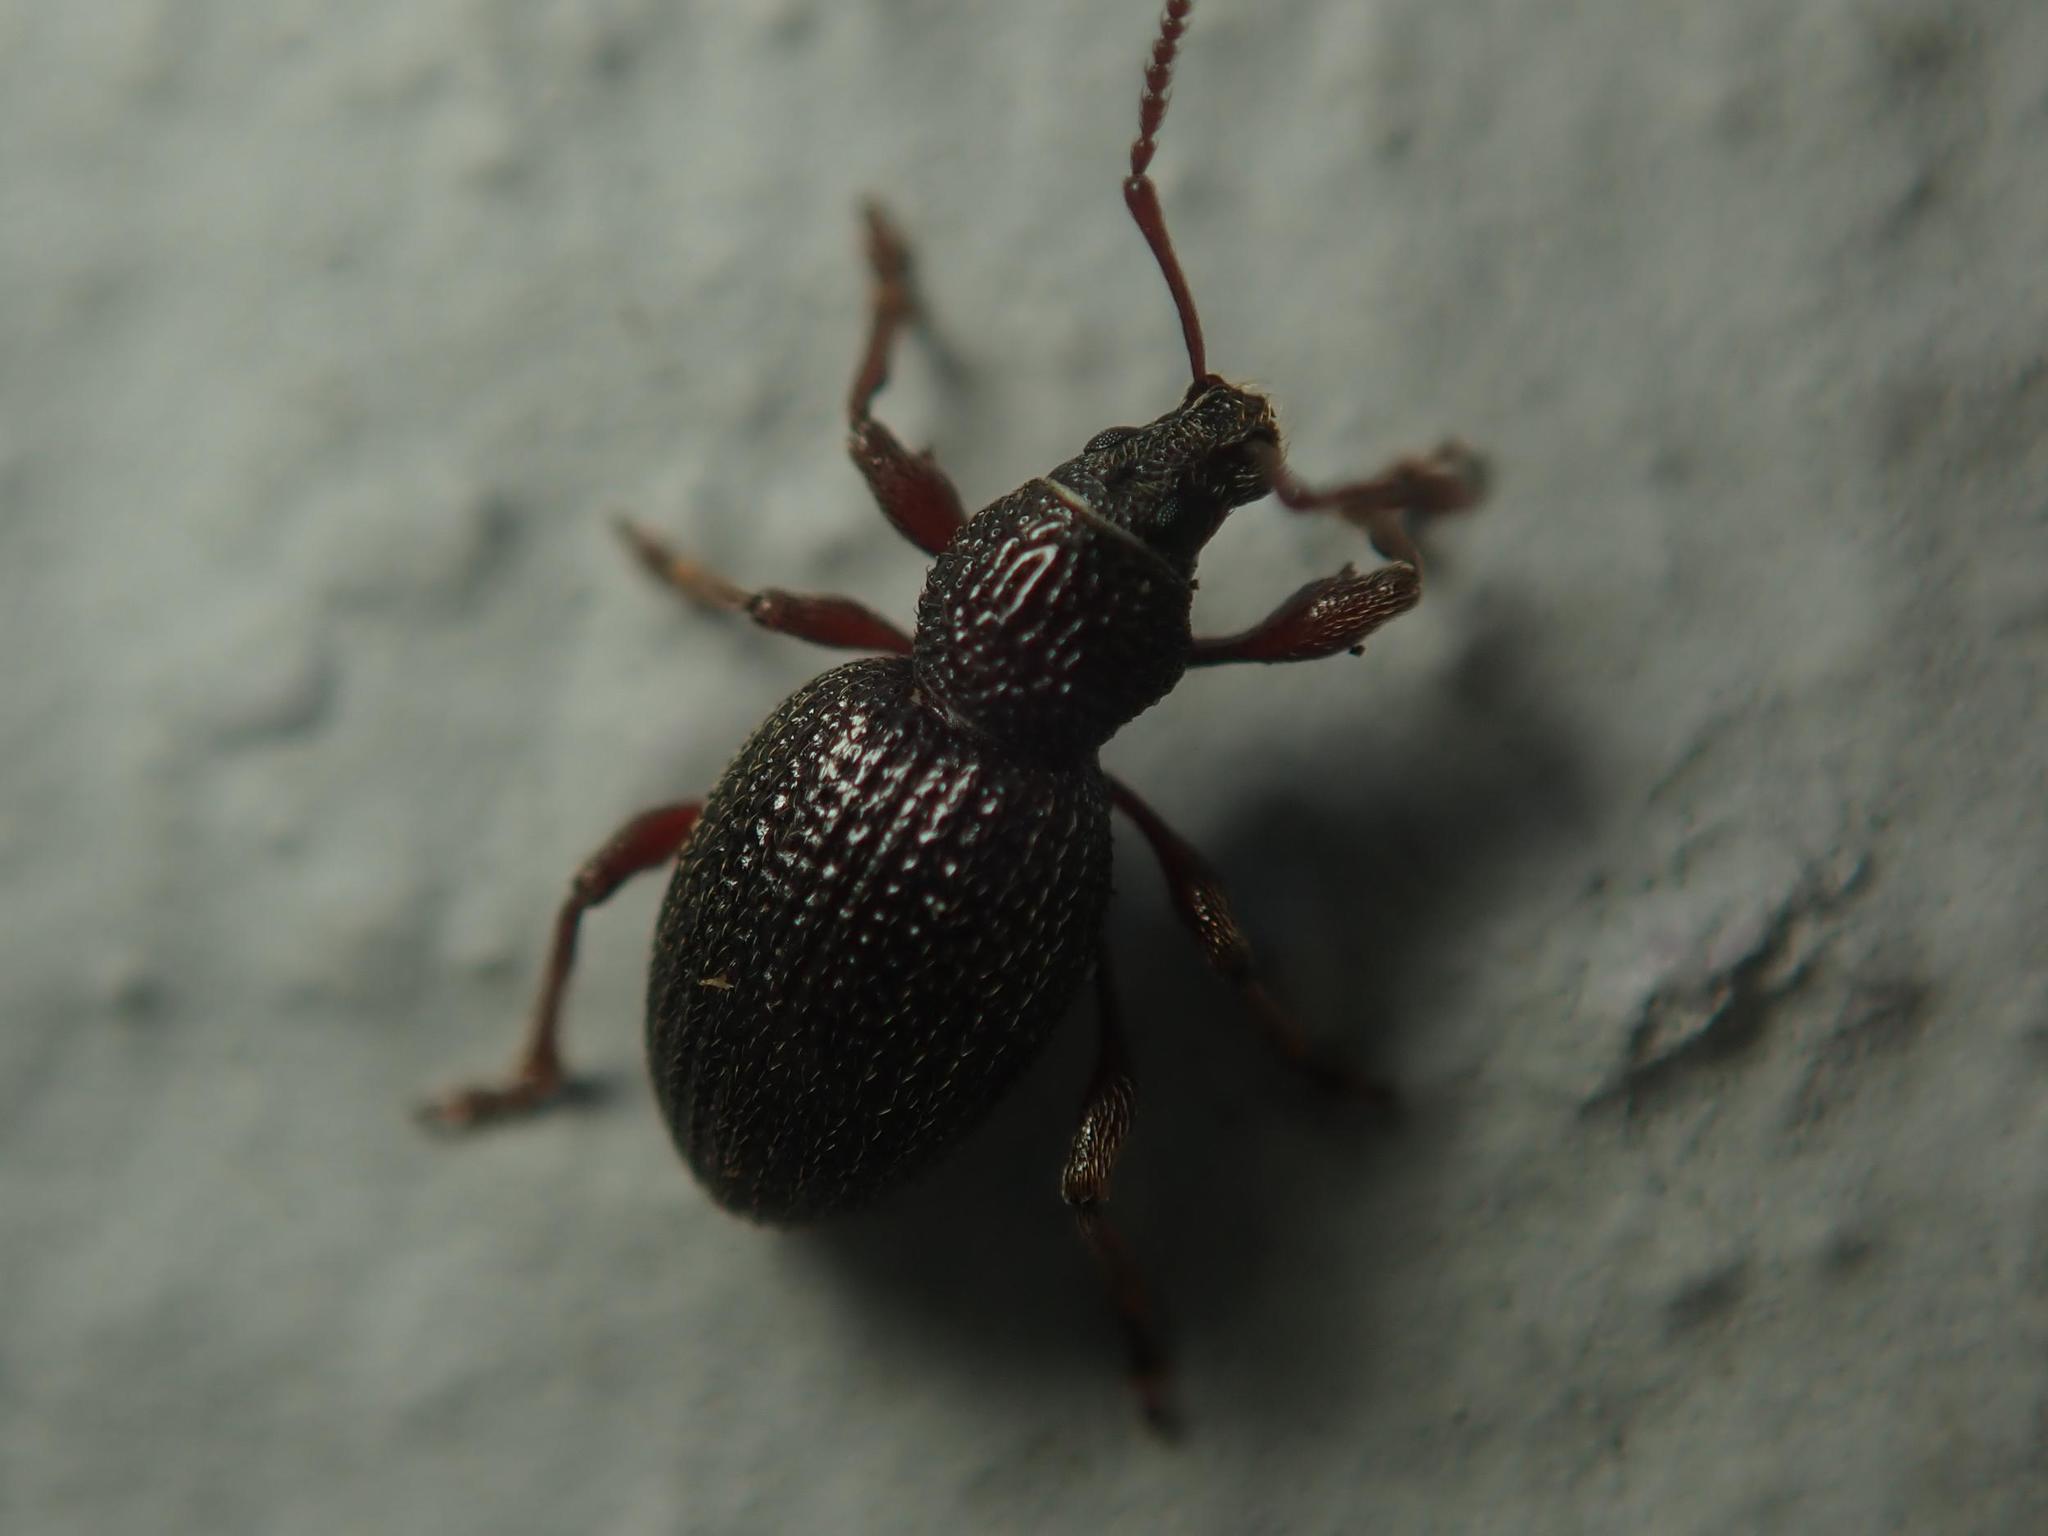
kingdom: Animalia
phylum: Arthropoda
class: Insecta
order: Coleoptera
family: Curculionidae
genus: Otiorhynchus
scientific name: Otiorhynchus ovatus
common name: Strawberry root weevil
